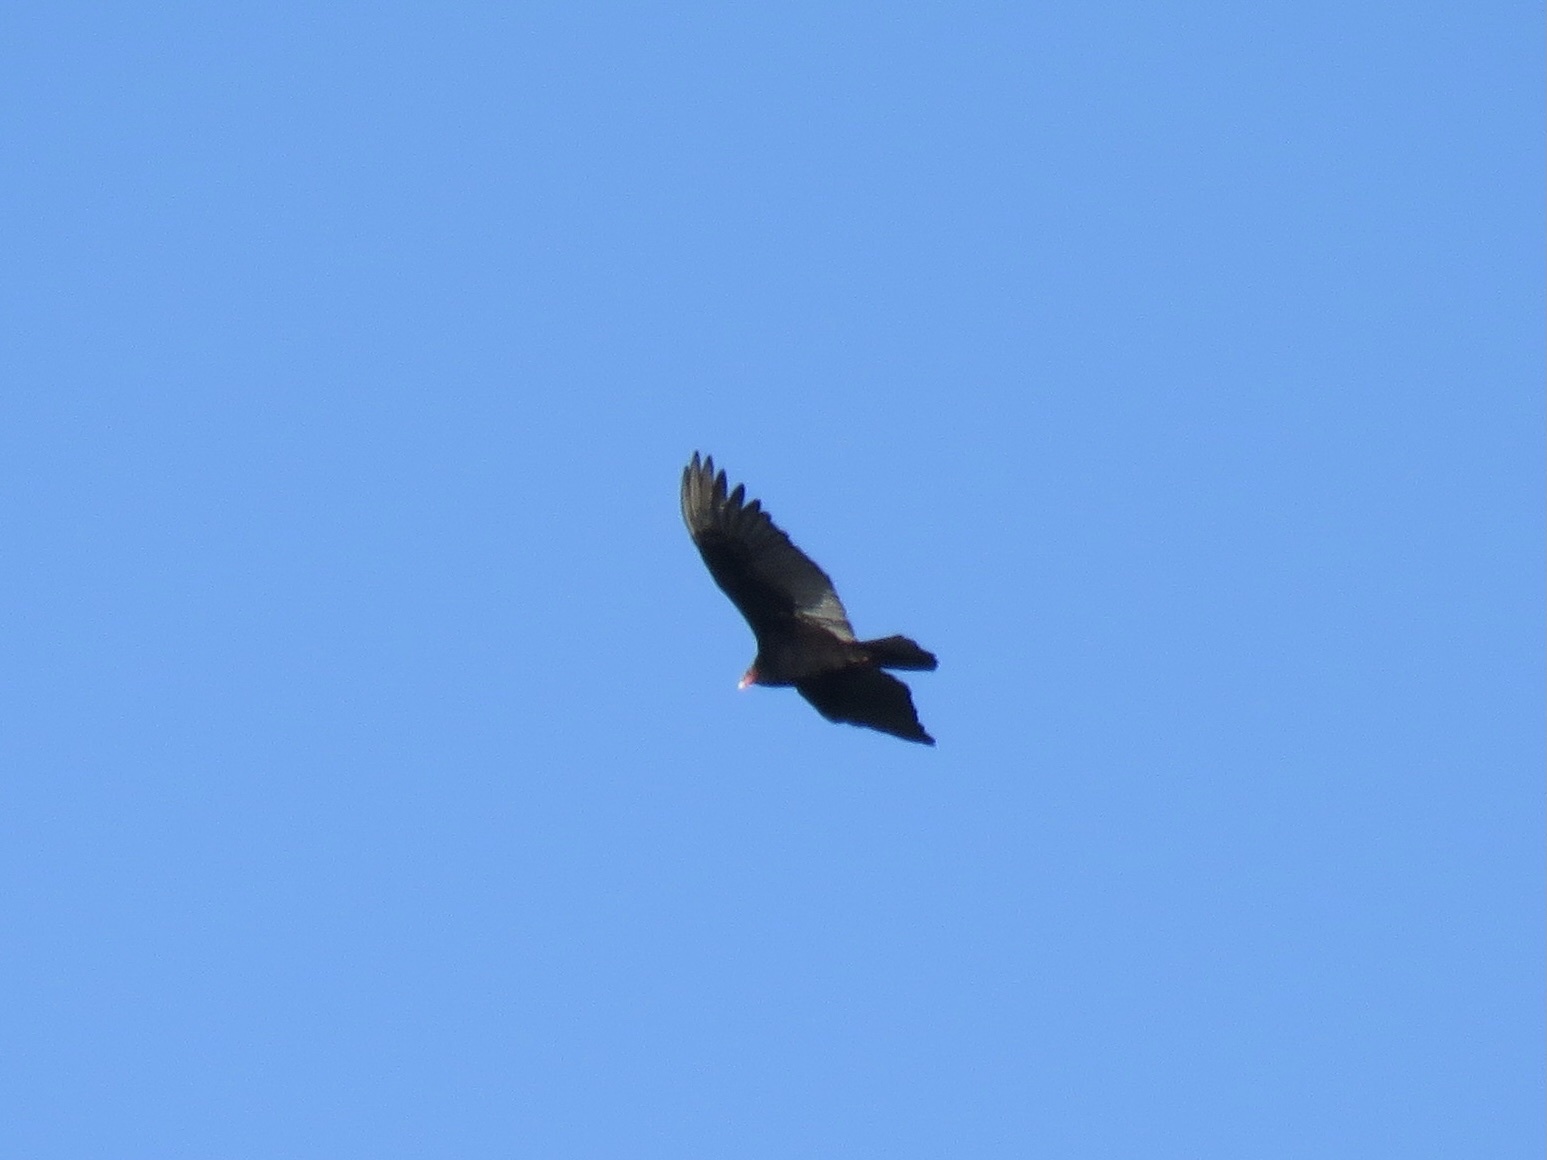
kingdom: Animalia
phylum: Chordata
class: Aves
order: Accipitriformes
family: Cathartidae
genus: Cathartes
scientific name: Cathartes aura
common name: Turkey vulture
